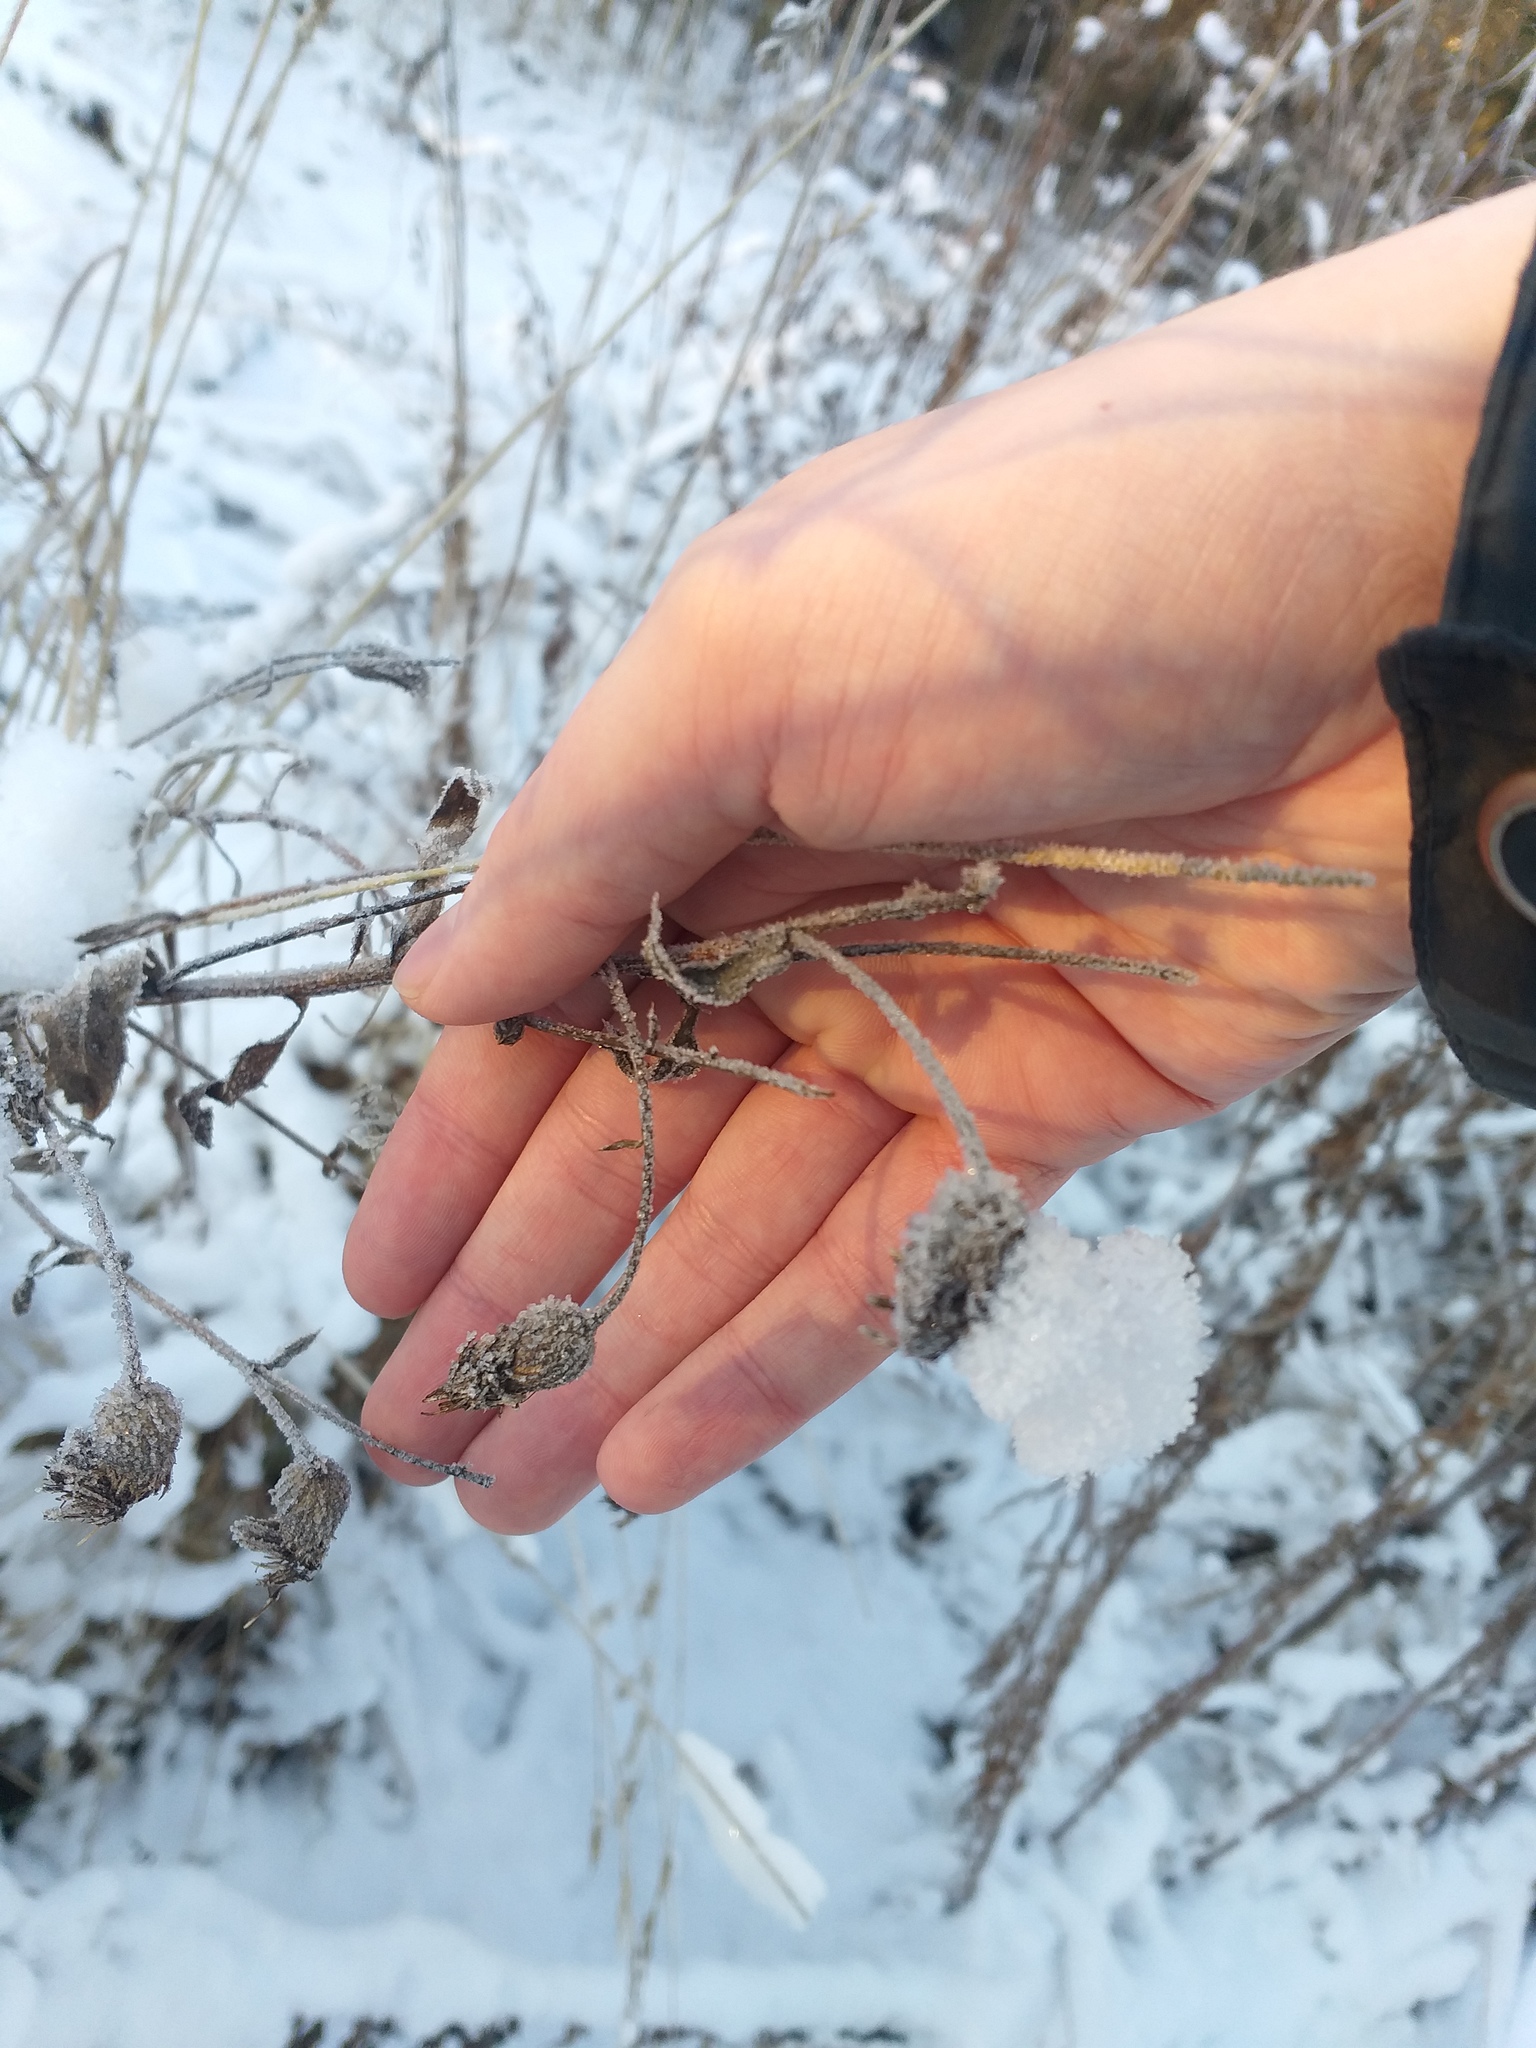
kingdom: Plantae
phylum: Tracheophyta
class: Magnoliopsida
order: Asterales
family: Asteraceae
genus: Cirsium
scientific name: Cirsium arvense
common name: Creeping thistle
